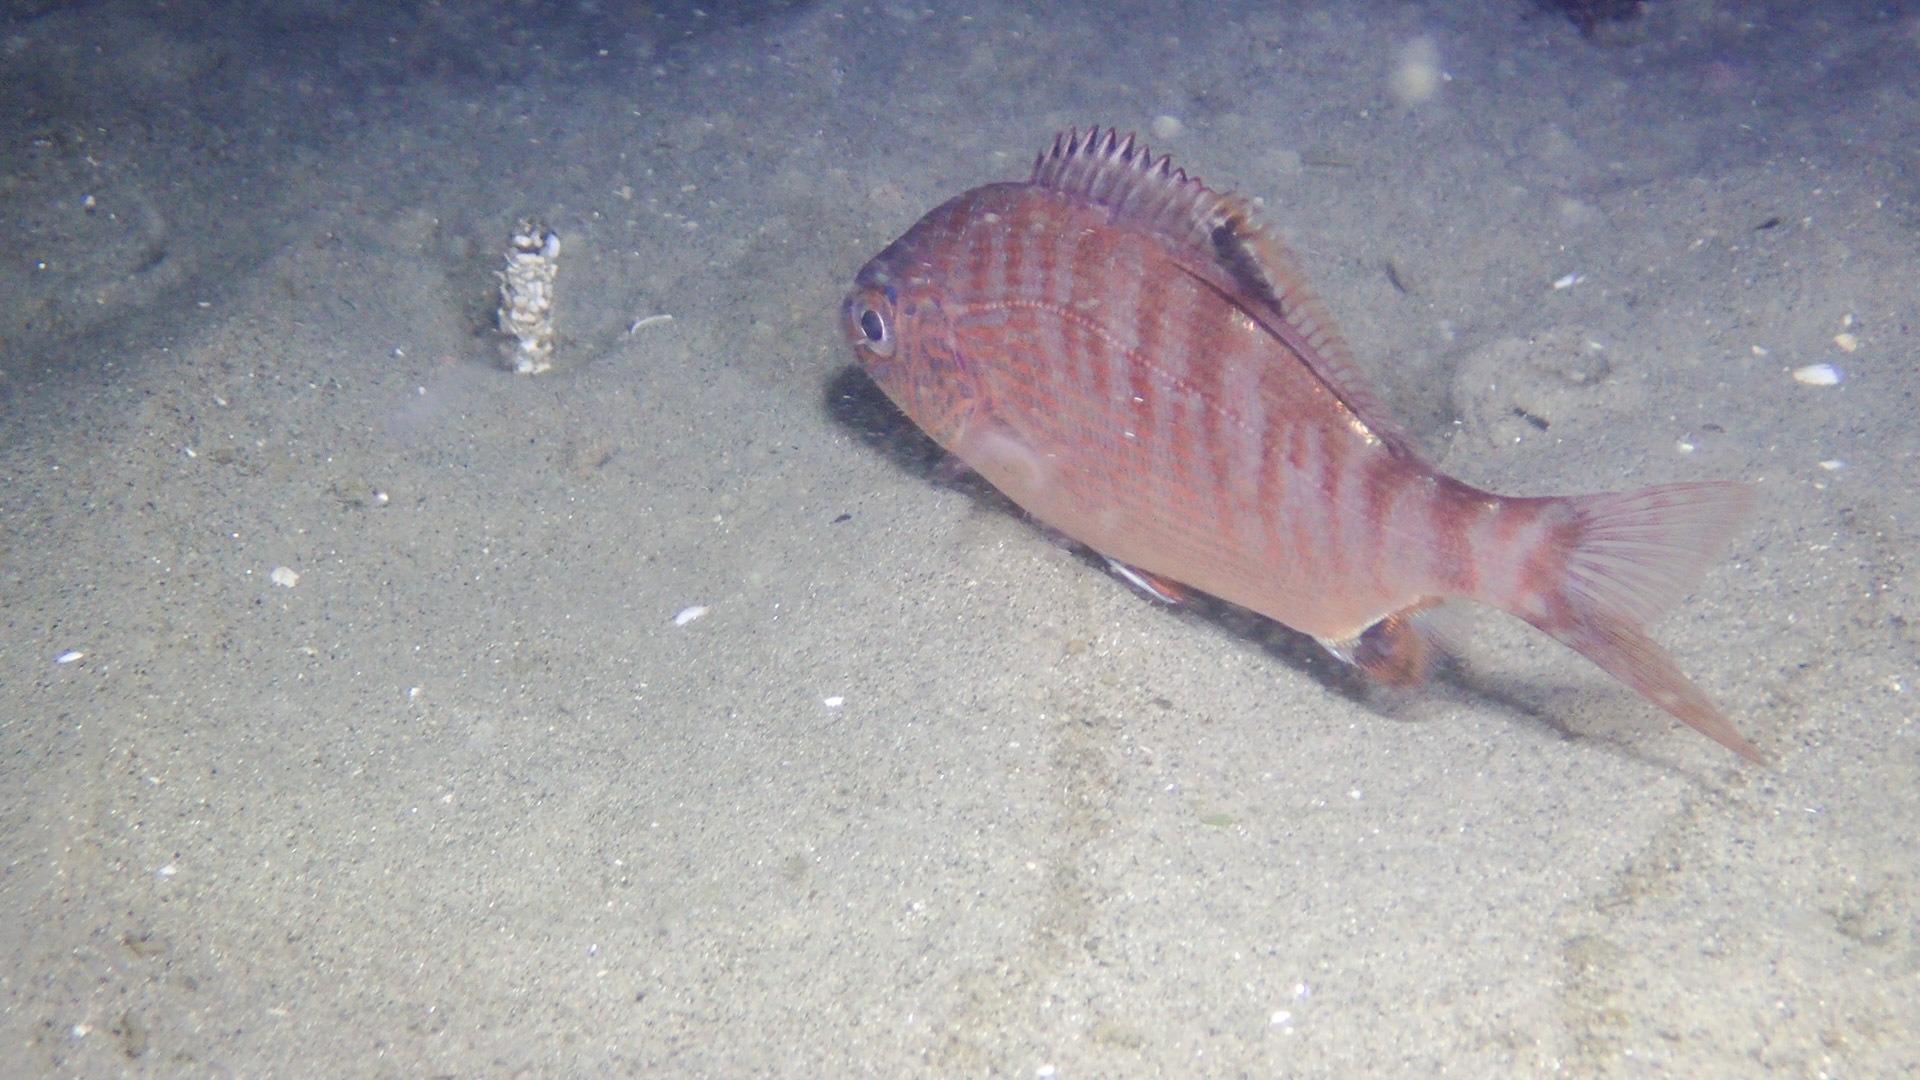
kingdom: Animalia
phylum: Chordata
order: Perciformes
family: Embiotocidae
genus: Hypsurus
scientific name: Hypsurus caryi
